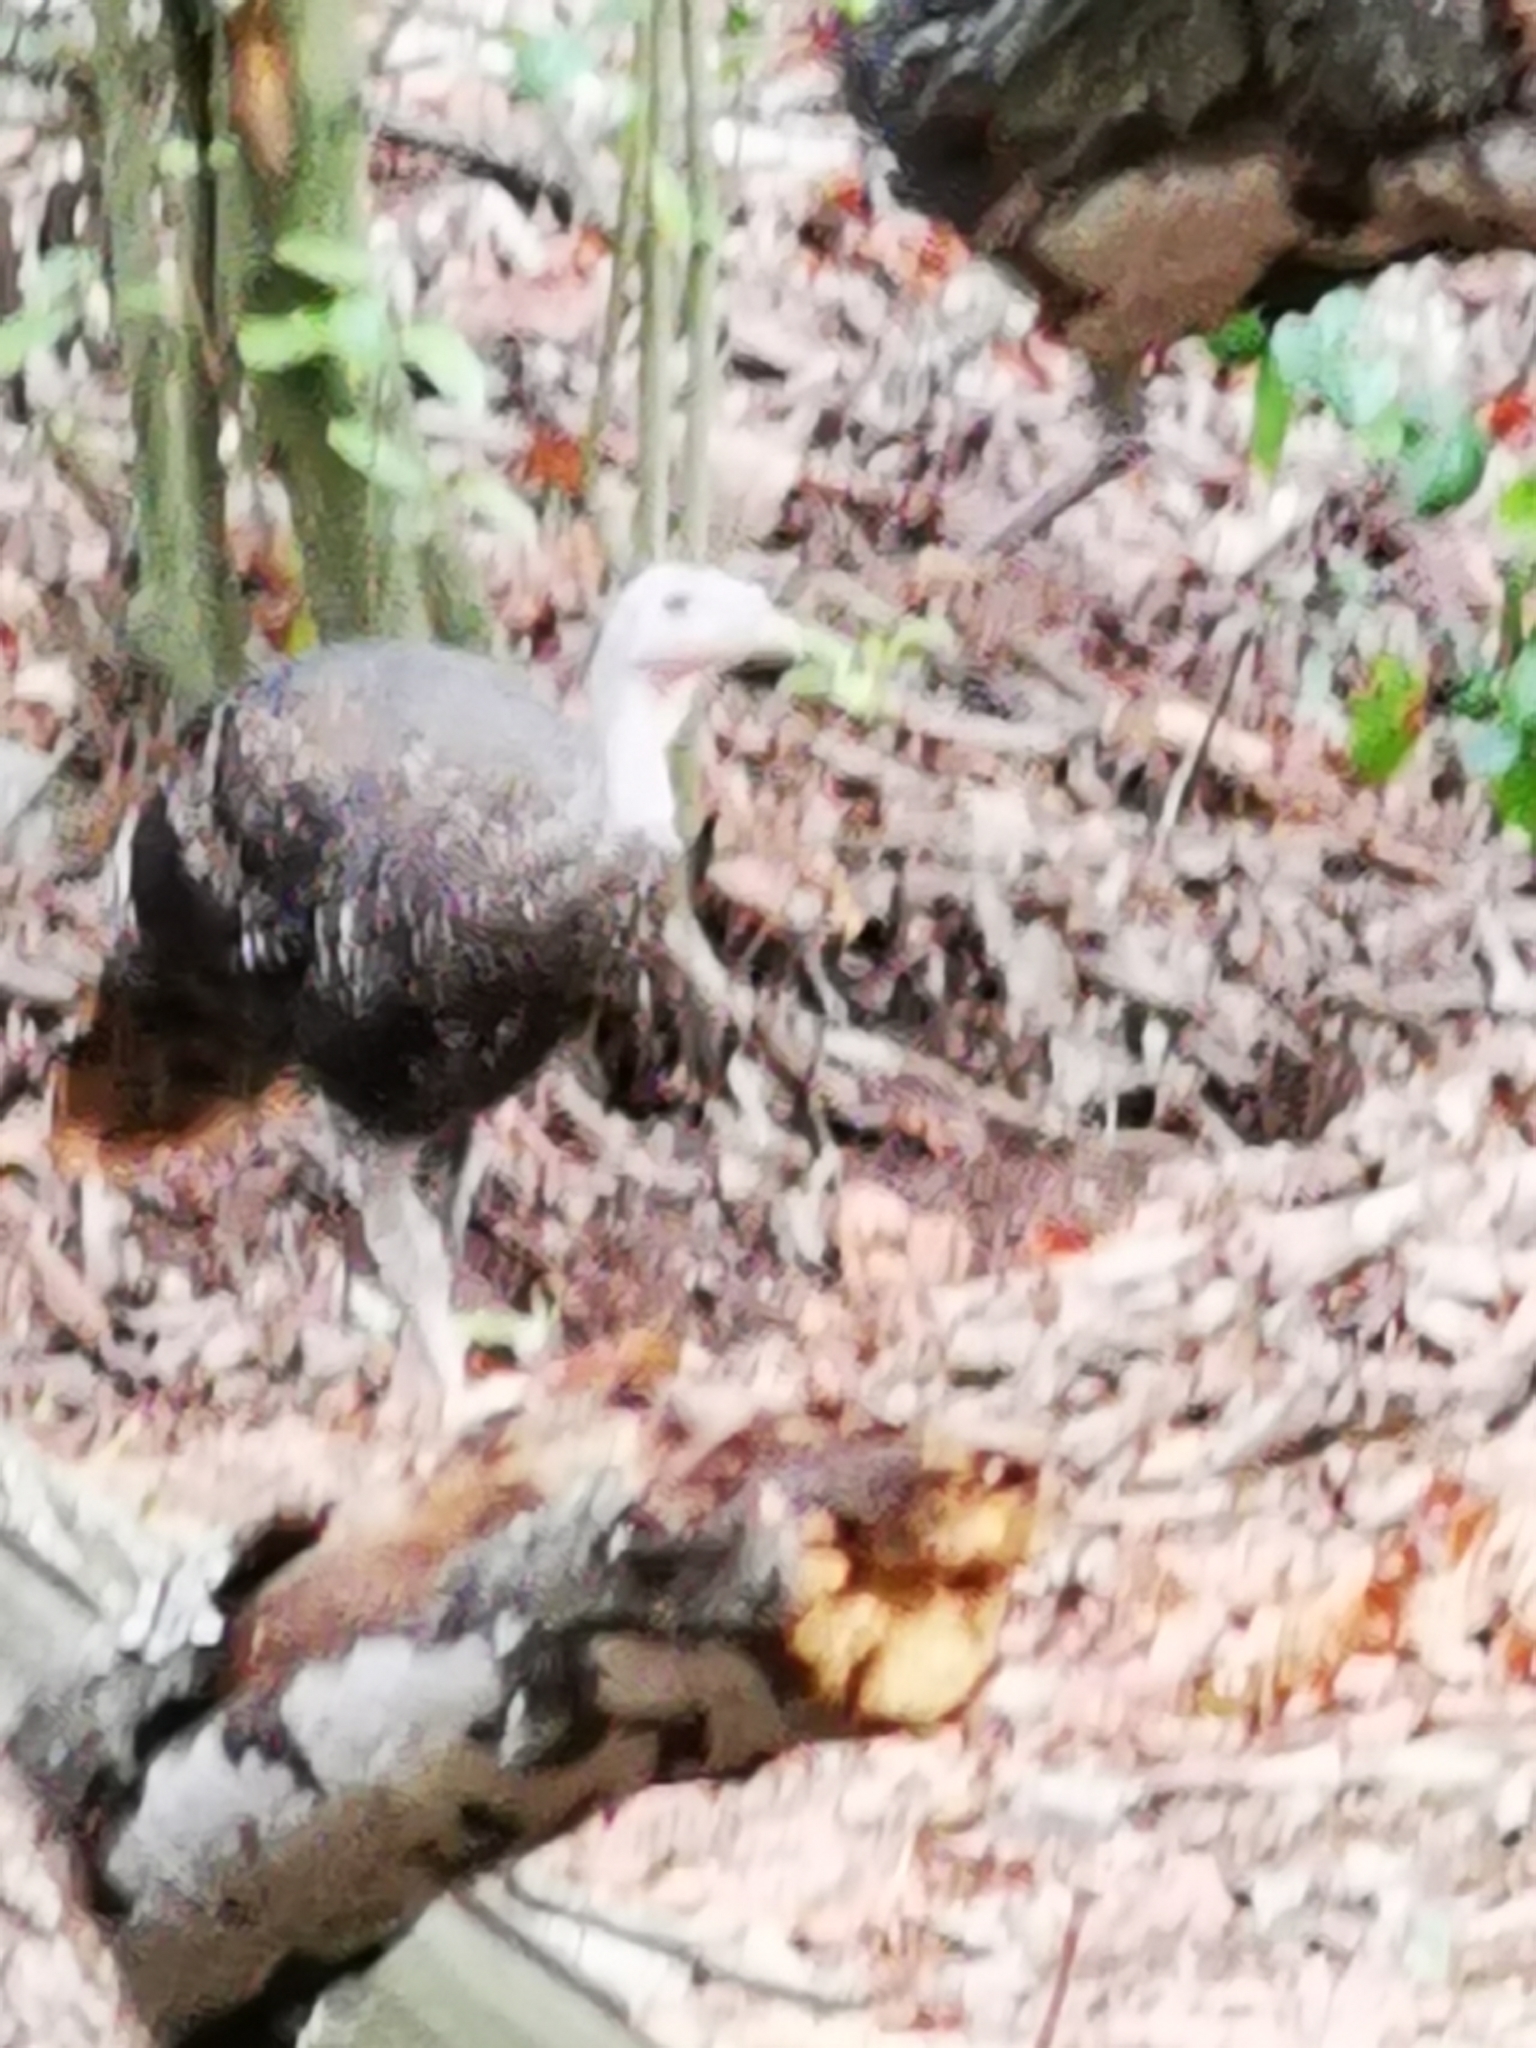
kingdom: Animalia
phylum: Chordata
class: Aves
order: Galliformes
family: Phasianidae
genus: Meleagris
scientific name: Meleagris gallopavo
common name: Wild turkey
